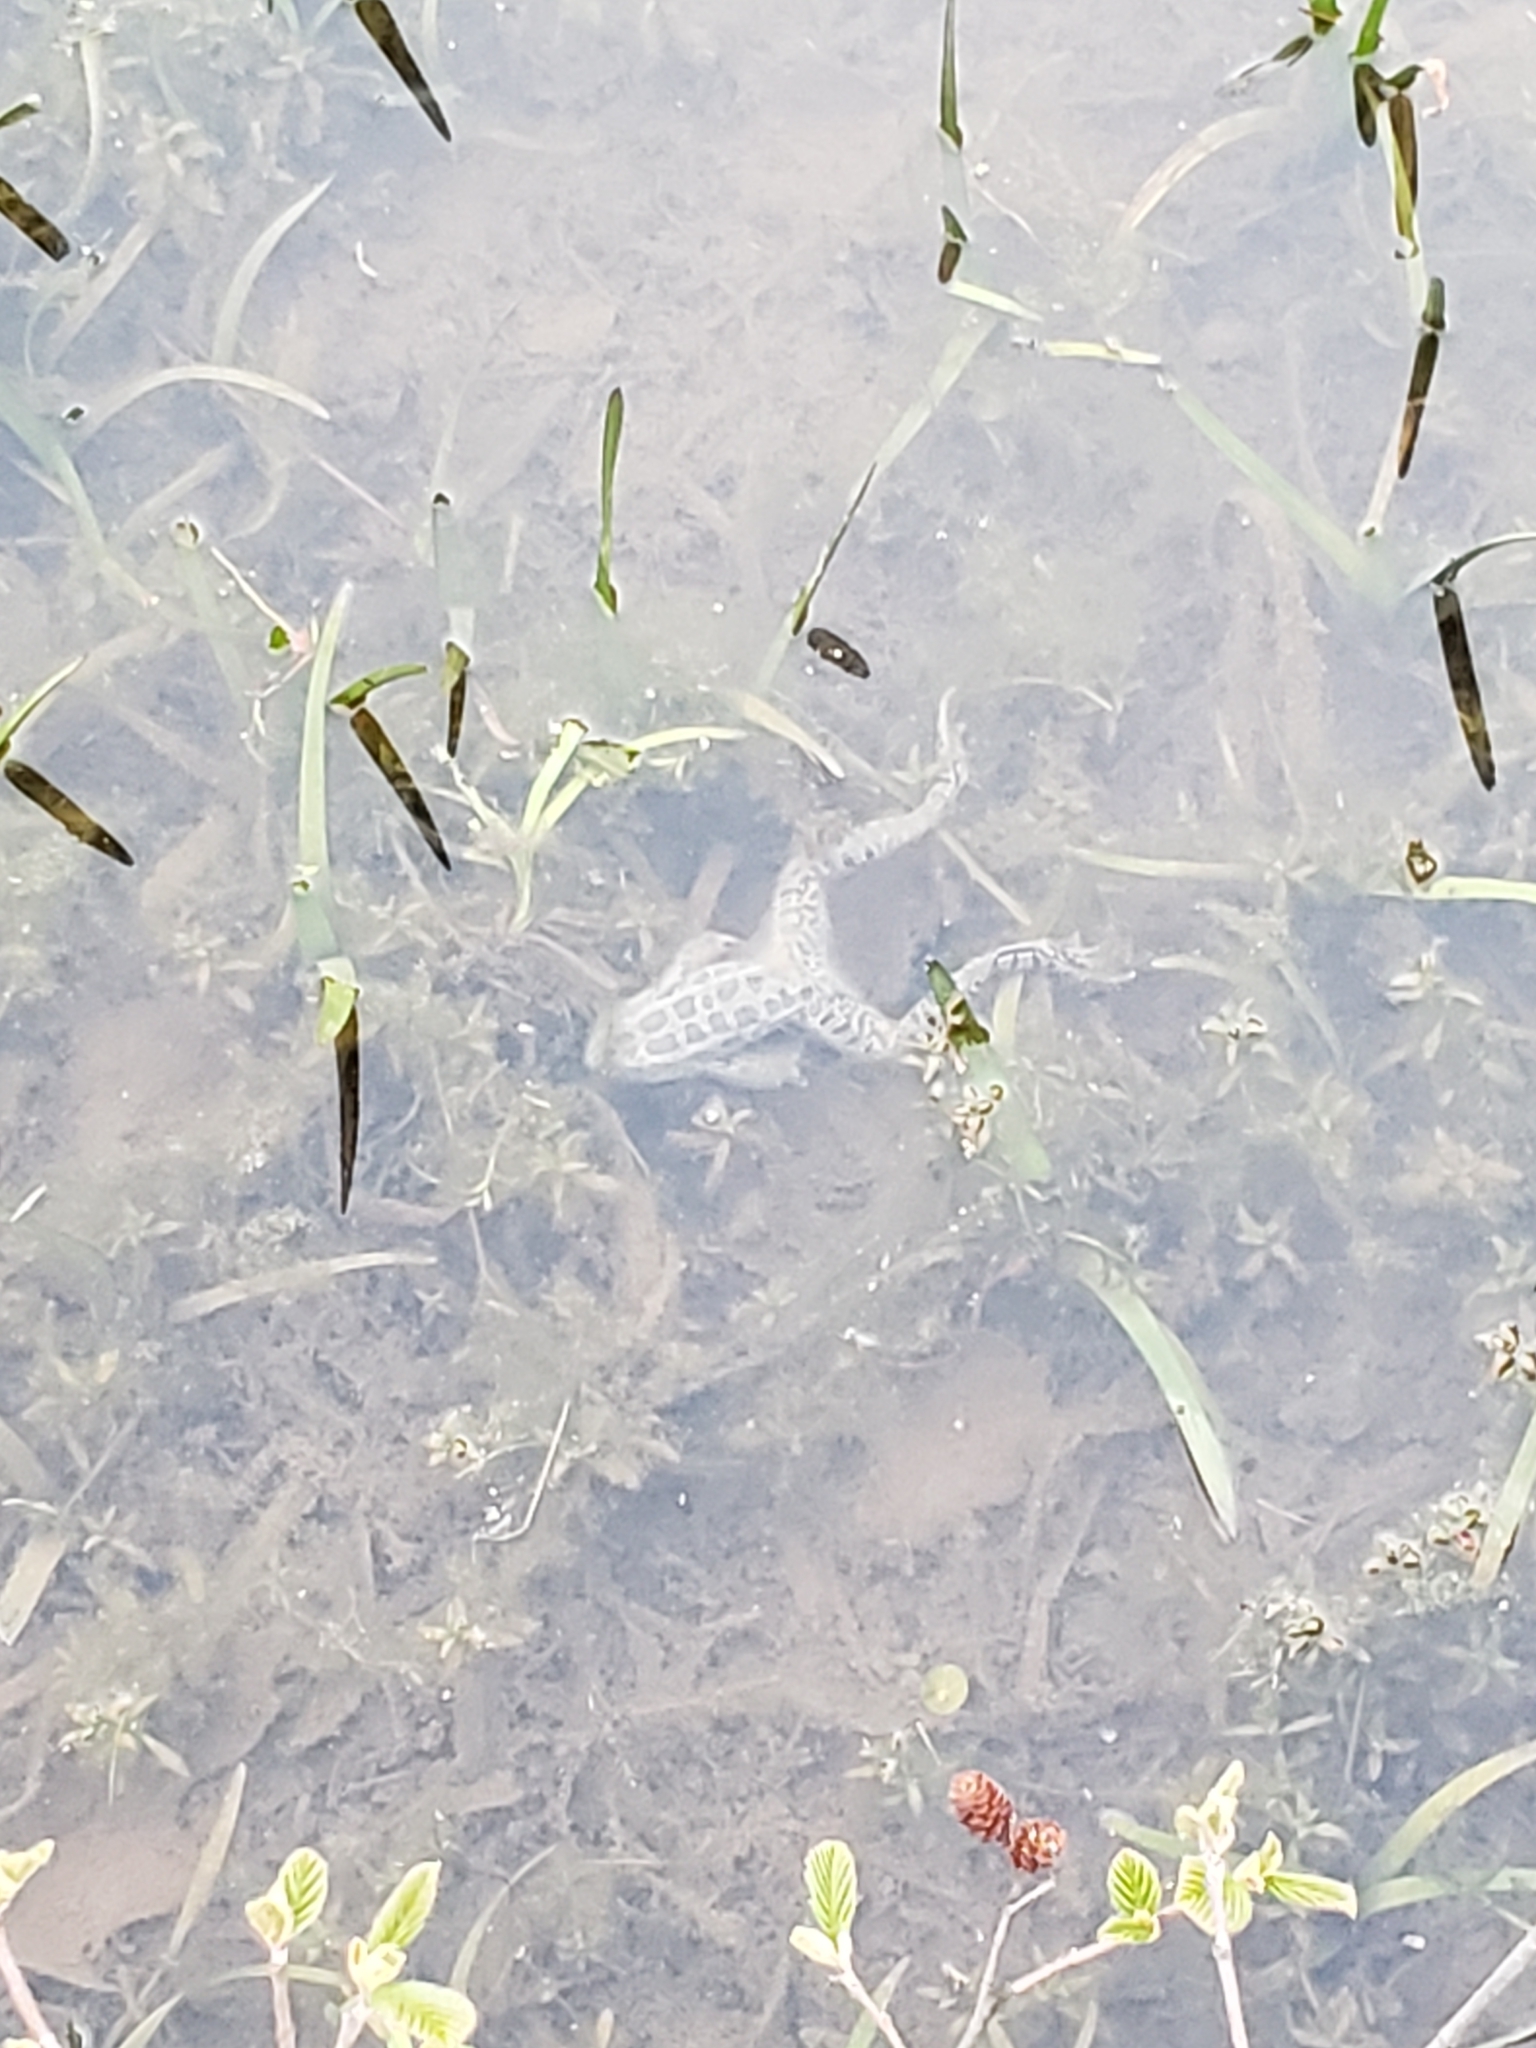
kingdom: Animalia
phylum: Chordata
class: Amphibia
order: Anura
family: Ranidae
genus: Lithobates
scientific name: Lithobates palustris
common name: Pickerel frog
